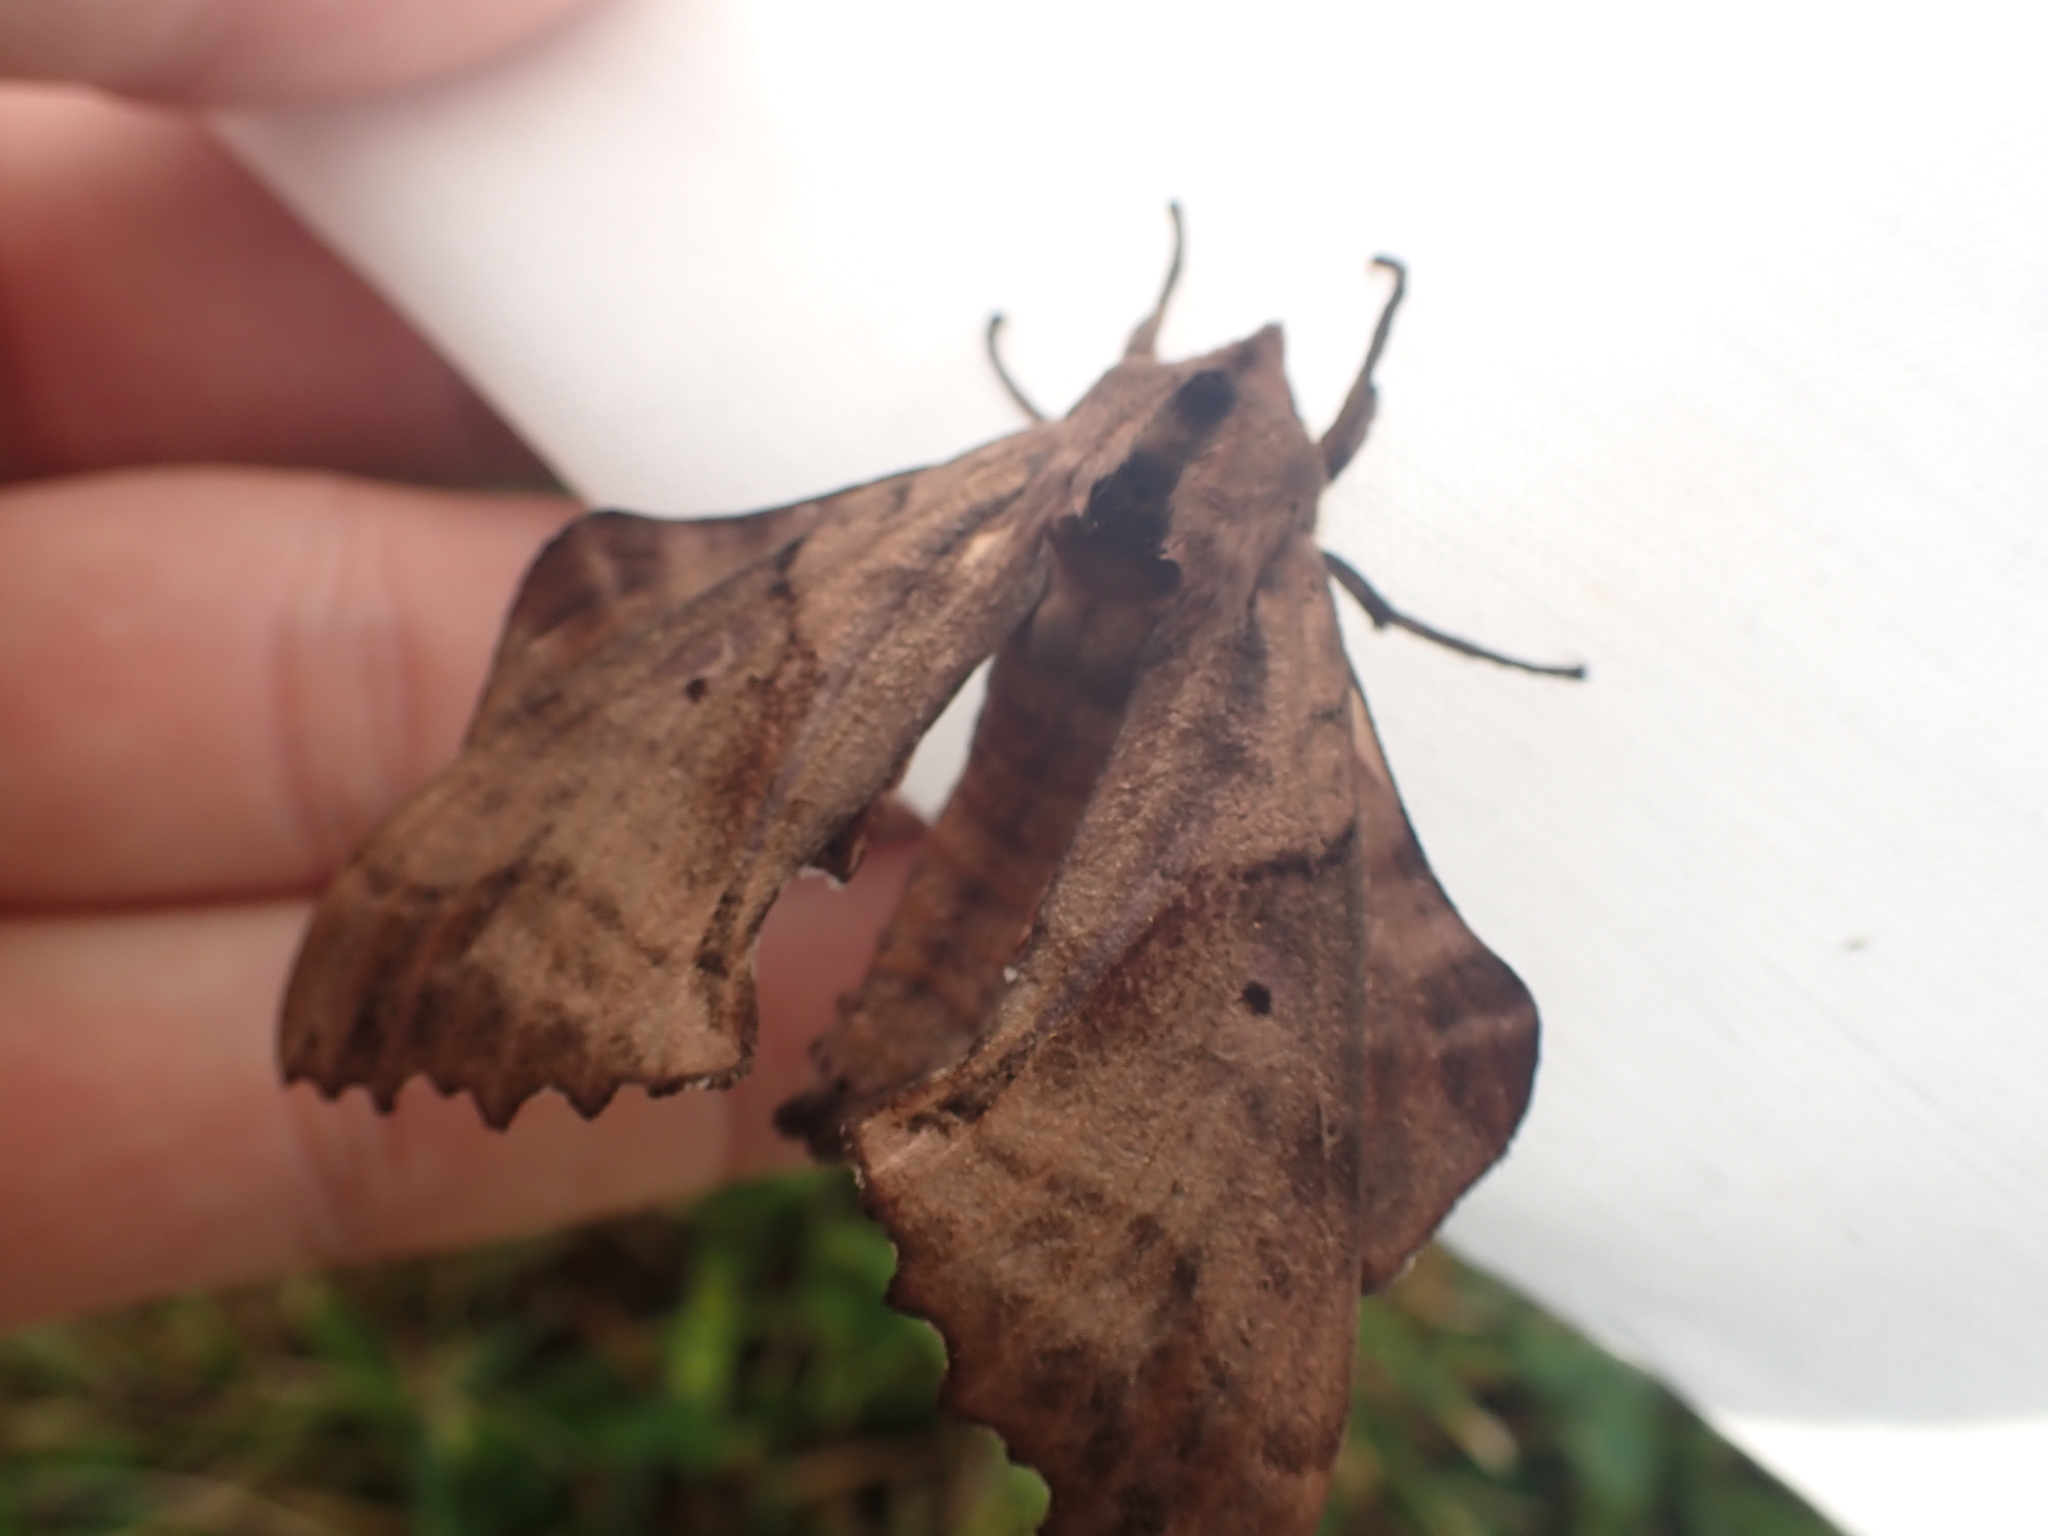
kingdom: Animalia
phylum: Arthropoda
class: Insecta
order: Lepidoptera
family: Sphingidae
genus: Paonias
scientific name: Paonias excaecata
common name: Blind-eyed sphinx
